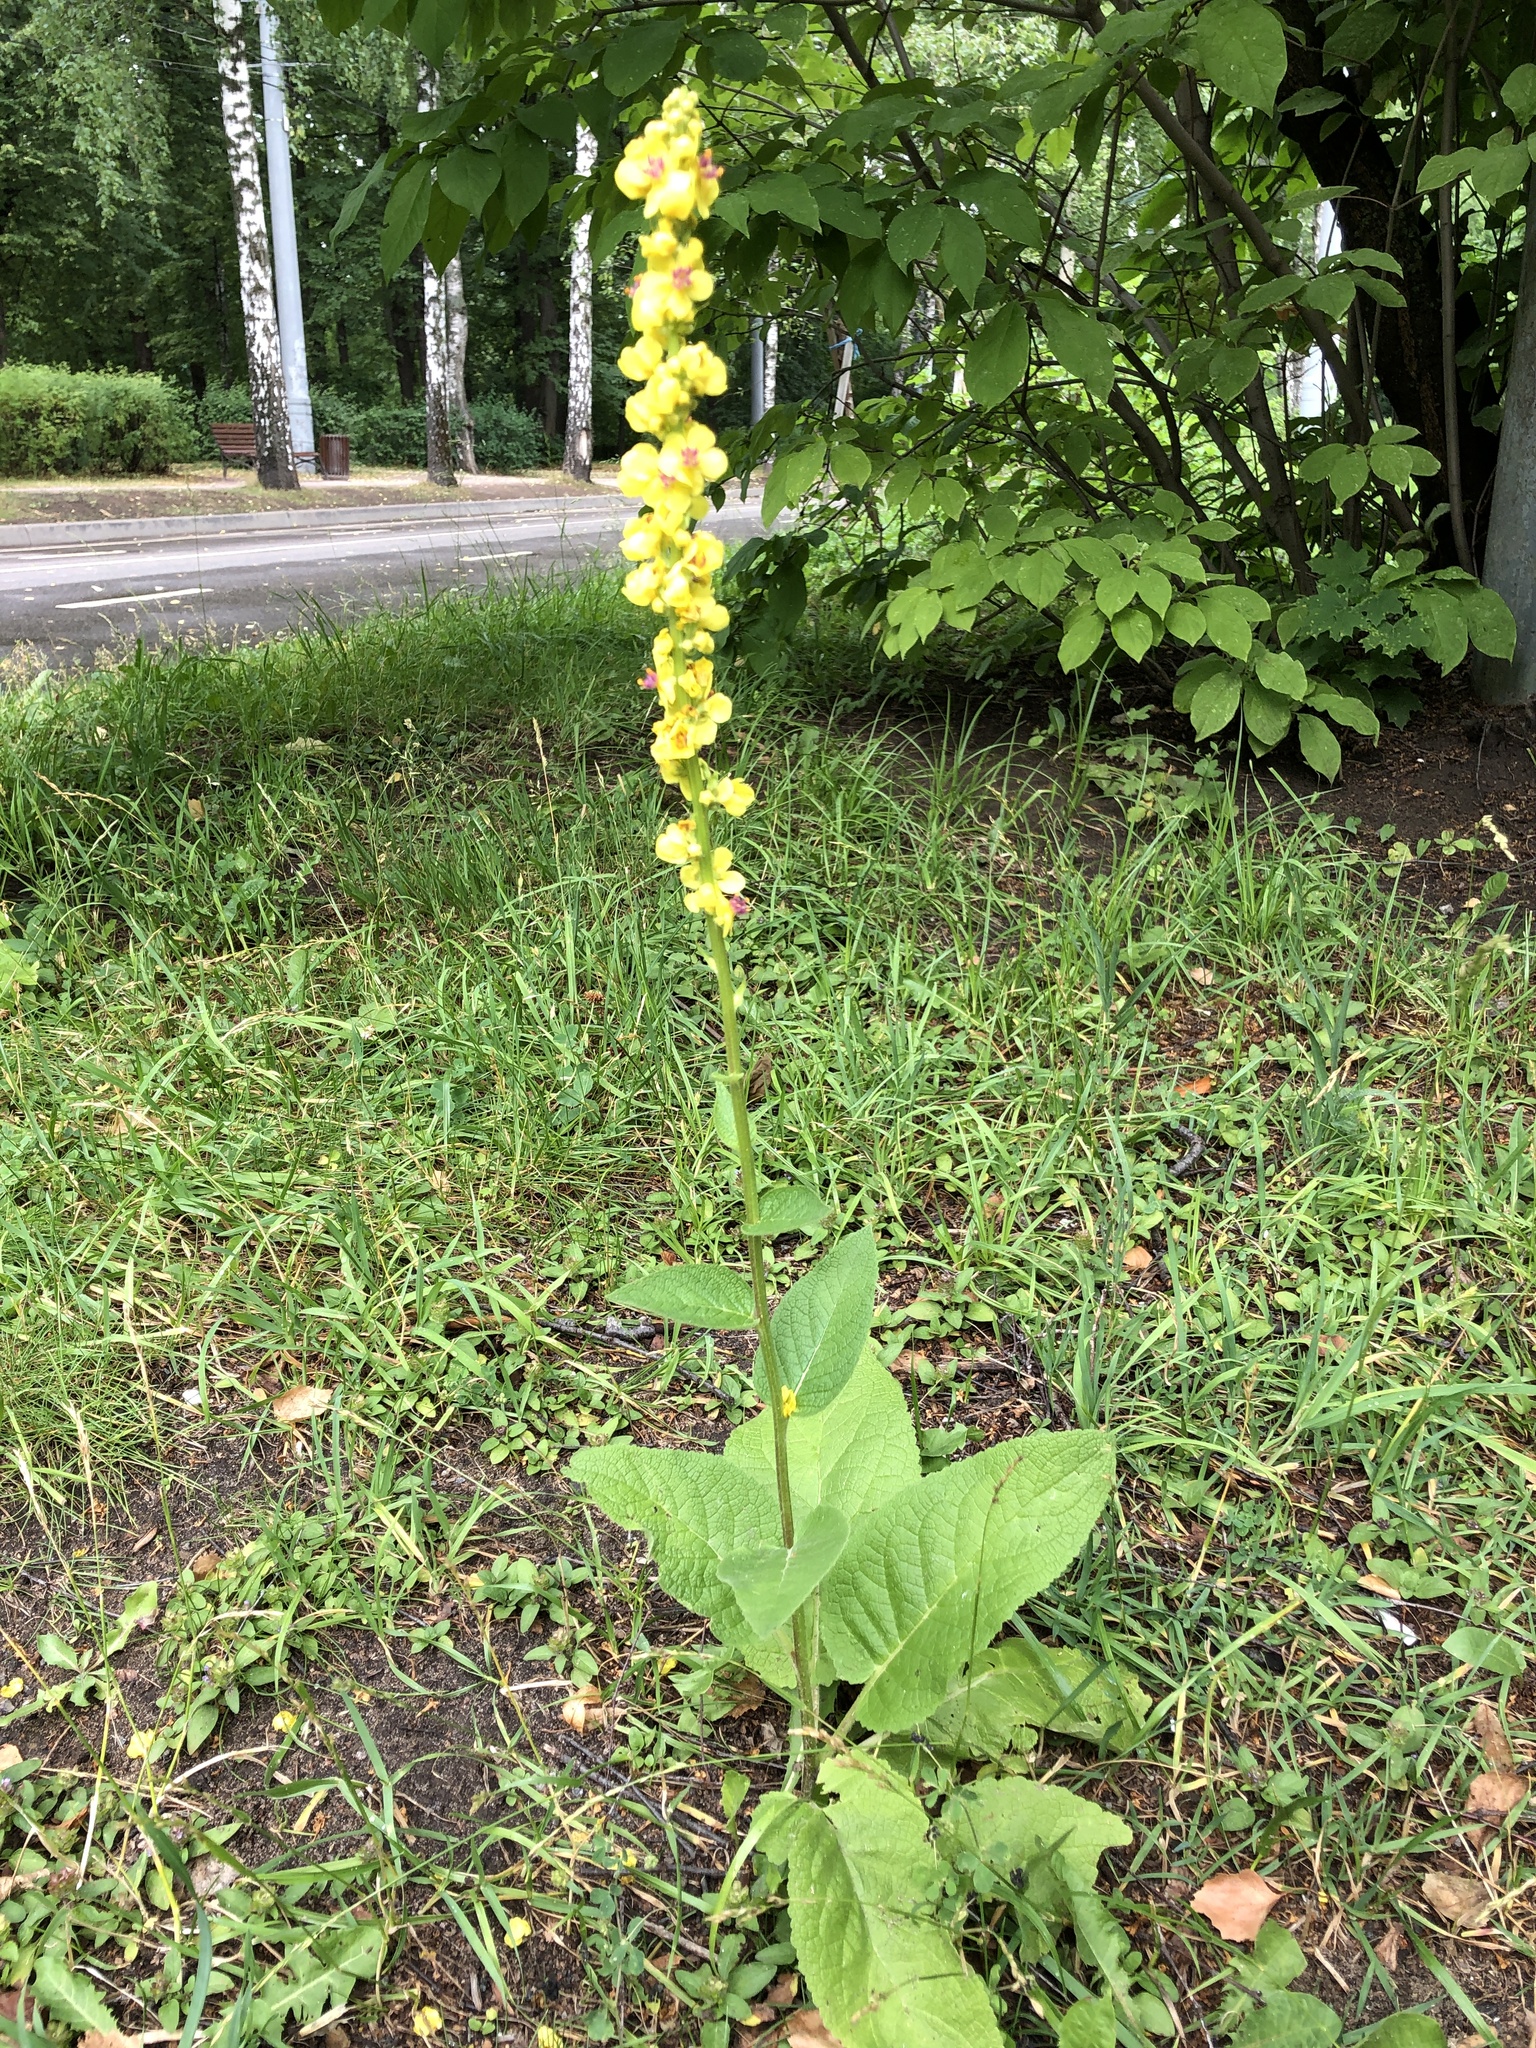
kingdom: Plantae
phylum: Tracheophyta
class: Magnoliopsida
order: Lamiales
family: Scrophulariaceae
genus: Verbascum
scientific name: Verbascum nigrum
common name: Dark mullein
